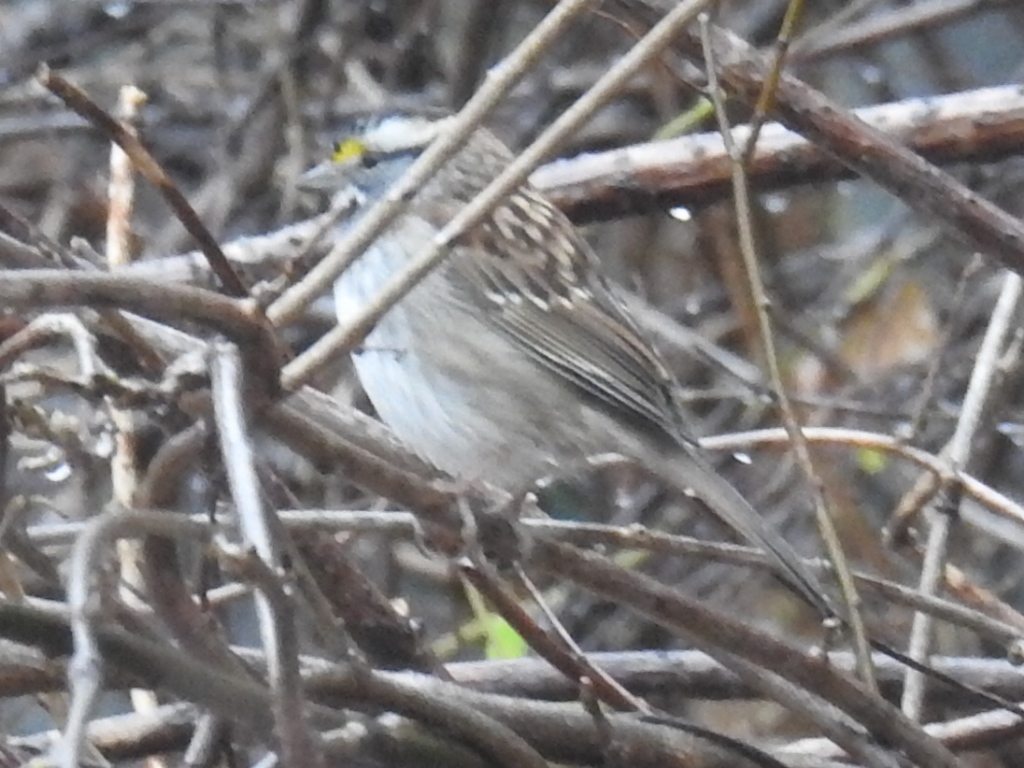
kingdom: Animalia
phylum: Chordata
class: Aves
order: Passeriformes
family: Passerellidae
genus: Zonotrichia
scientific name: Zonotrichia albicollis
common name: White-throated sparrow
